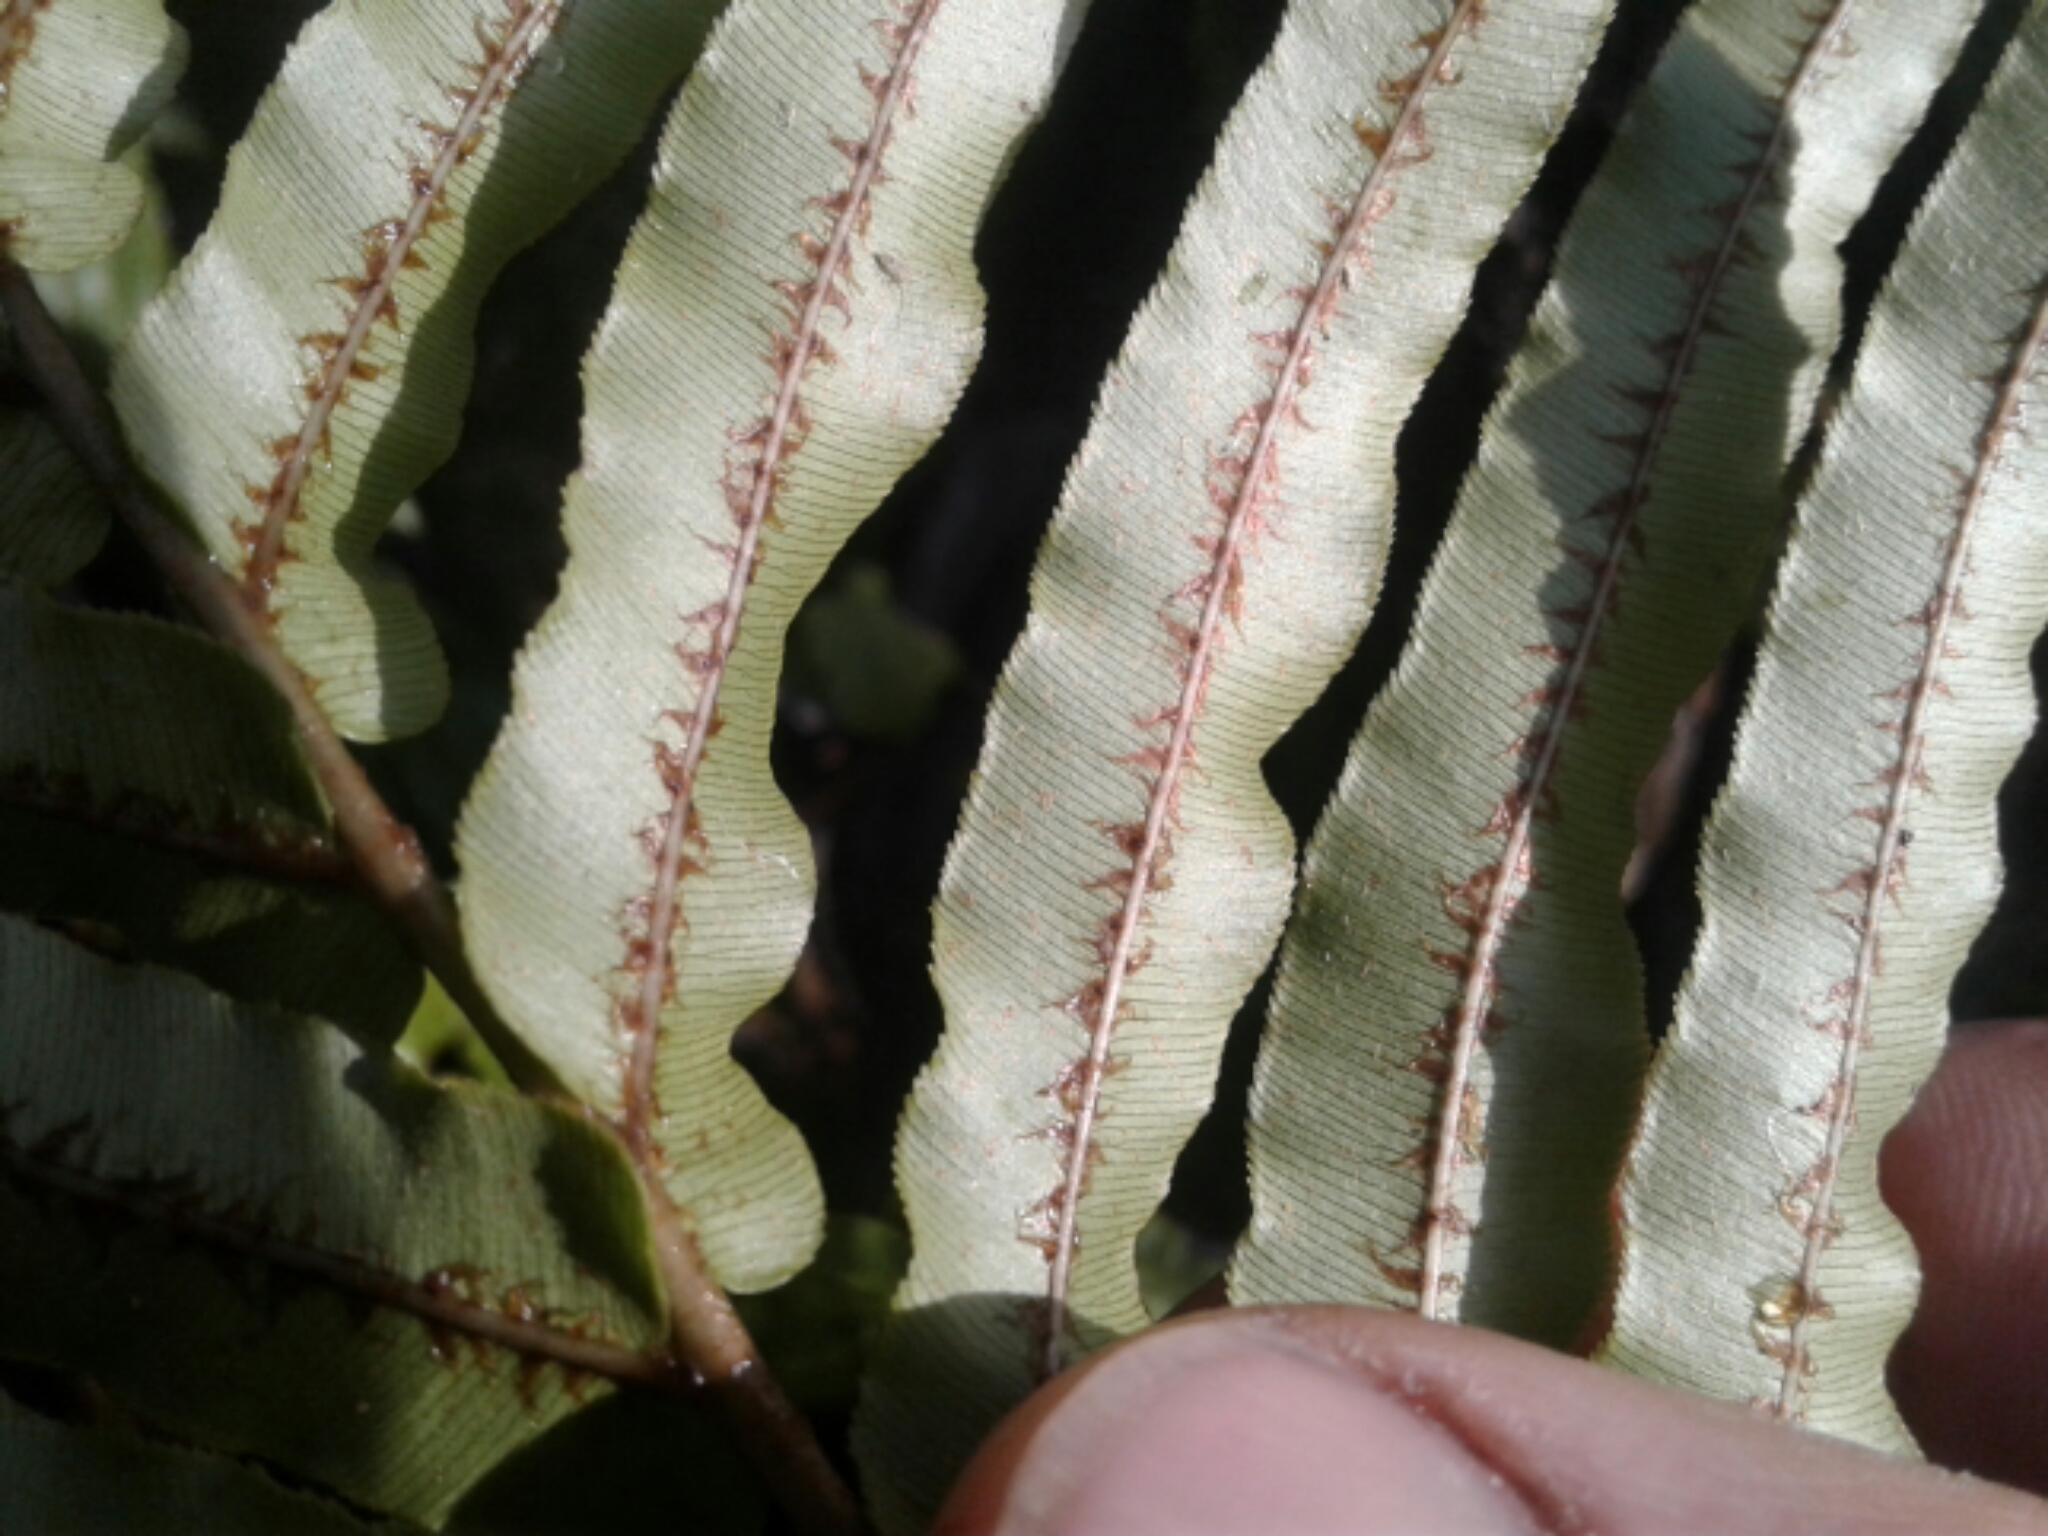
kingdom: Plantae
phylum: Tracheophyta
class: Polypodiopsida
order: Polypodiales
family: Blechnaceae
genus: Parablechnum
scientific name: Parablechnum novae-zelandiae
